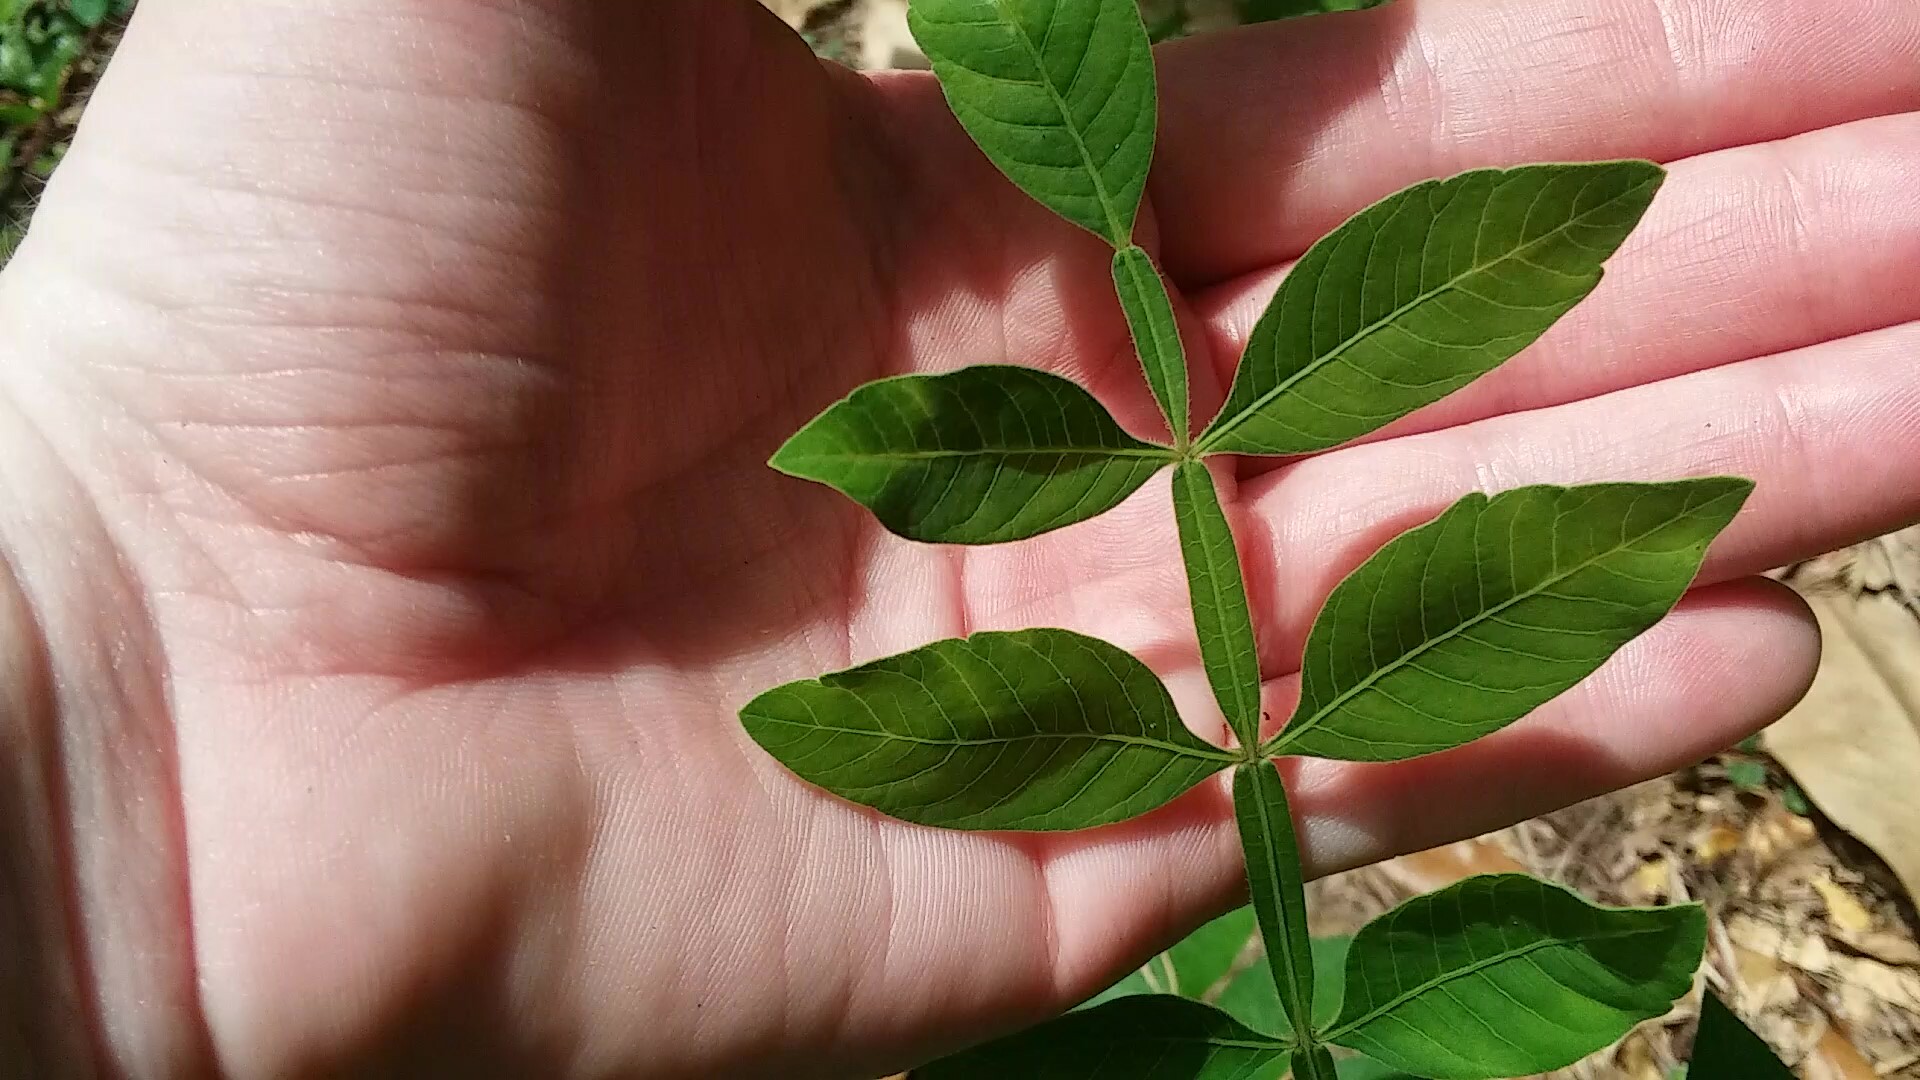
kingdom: Plantae
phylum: Tracheophyta
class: Magnoliopsida
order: Sapindales
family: Anacardiaceae
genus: Rhus
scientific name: Rhus copallina
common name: Shining sumac
